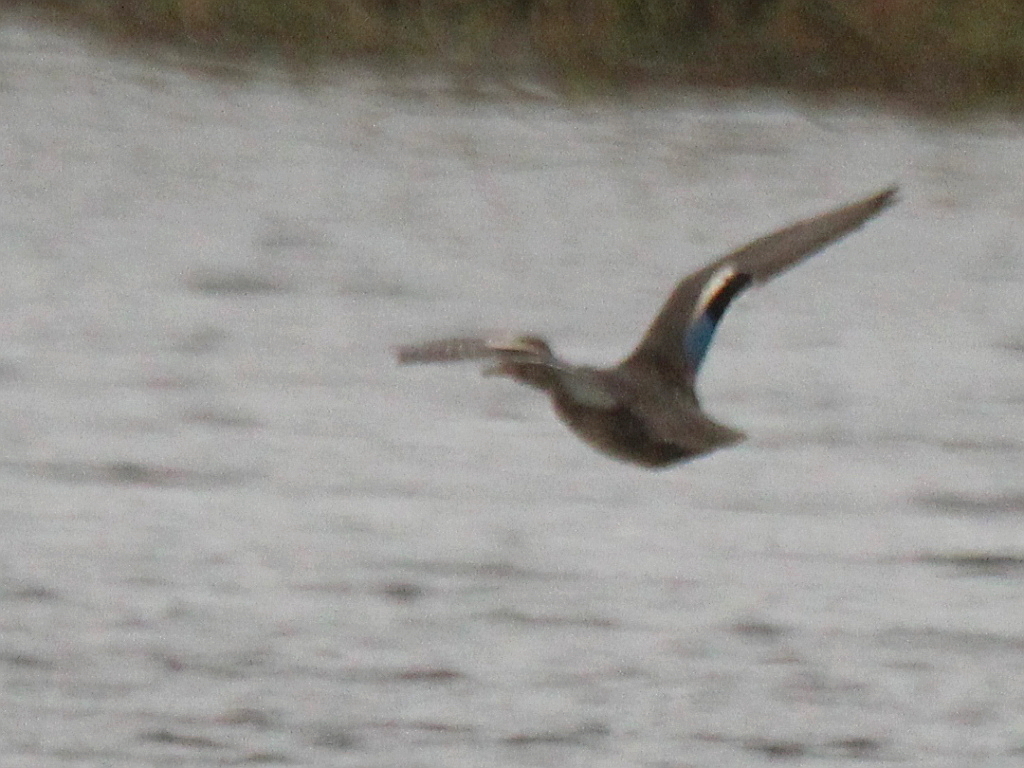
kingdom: Animalia
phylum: Chordata
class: Aves
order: Anseriformes
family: Anatidae
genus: Anas
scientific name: Anas crecca
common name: Eurasian teal
